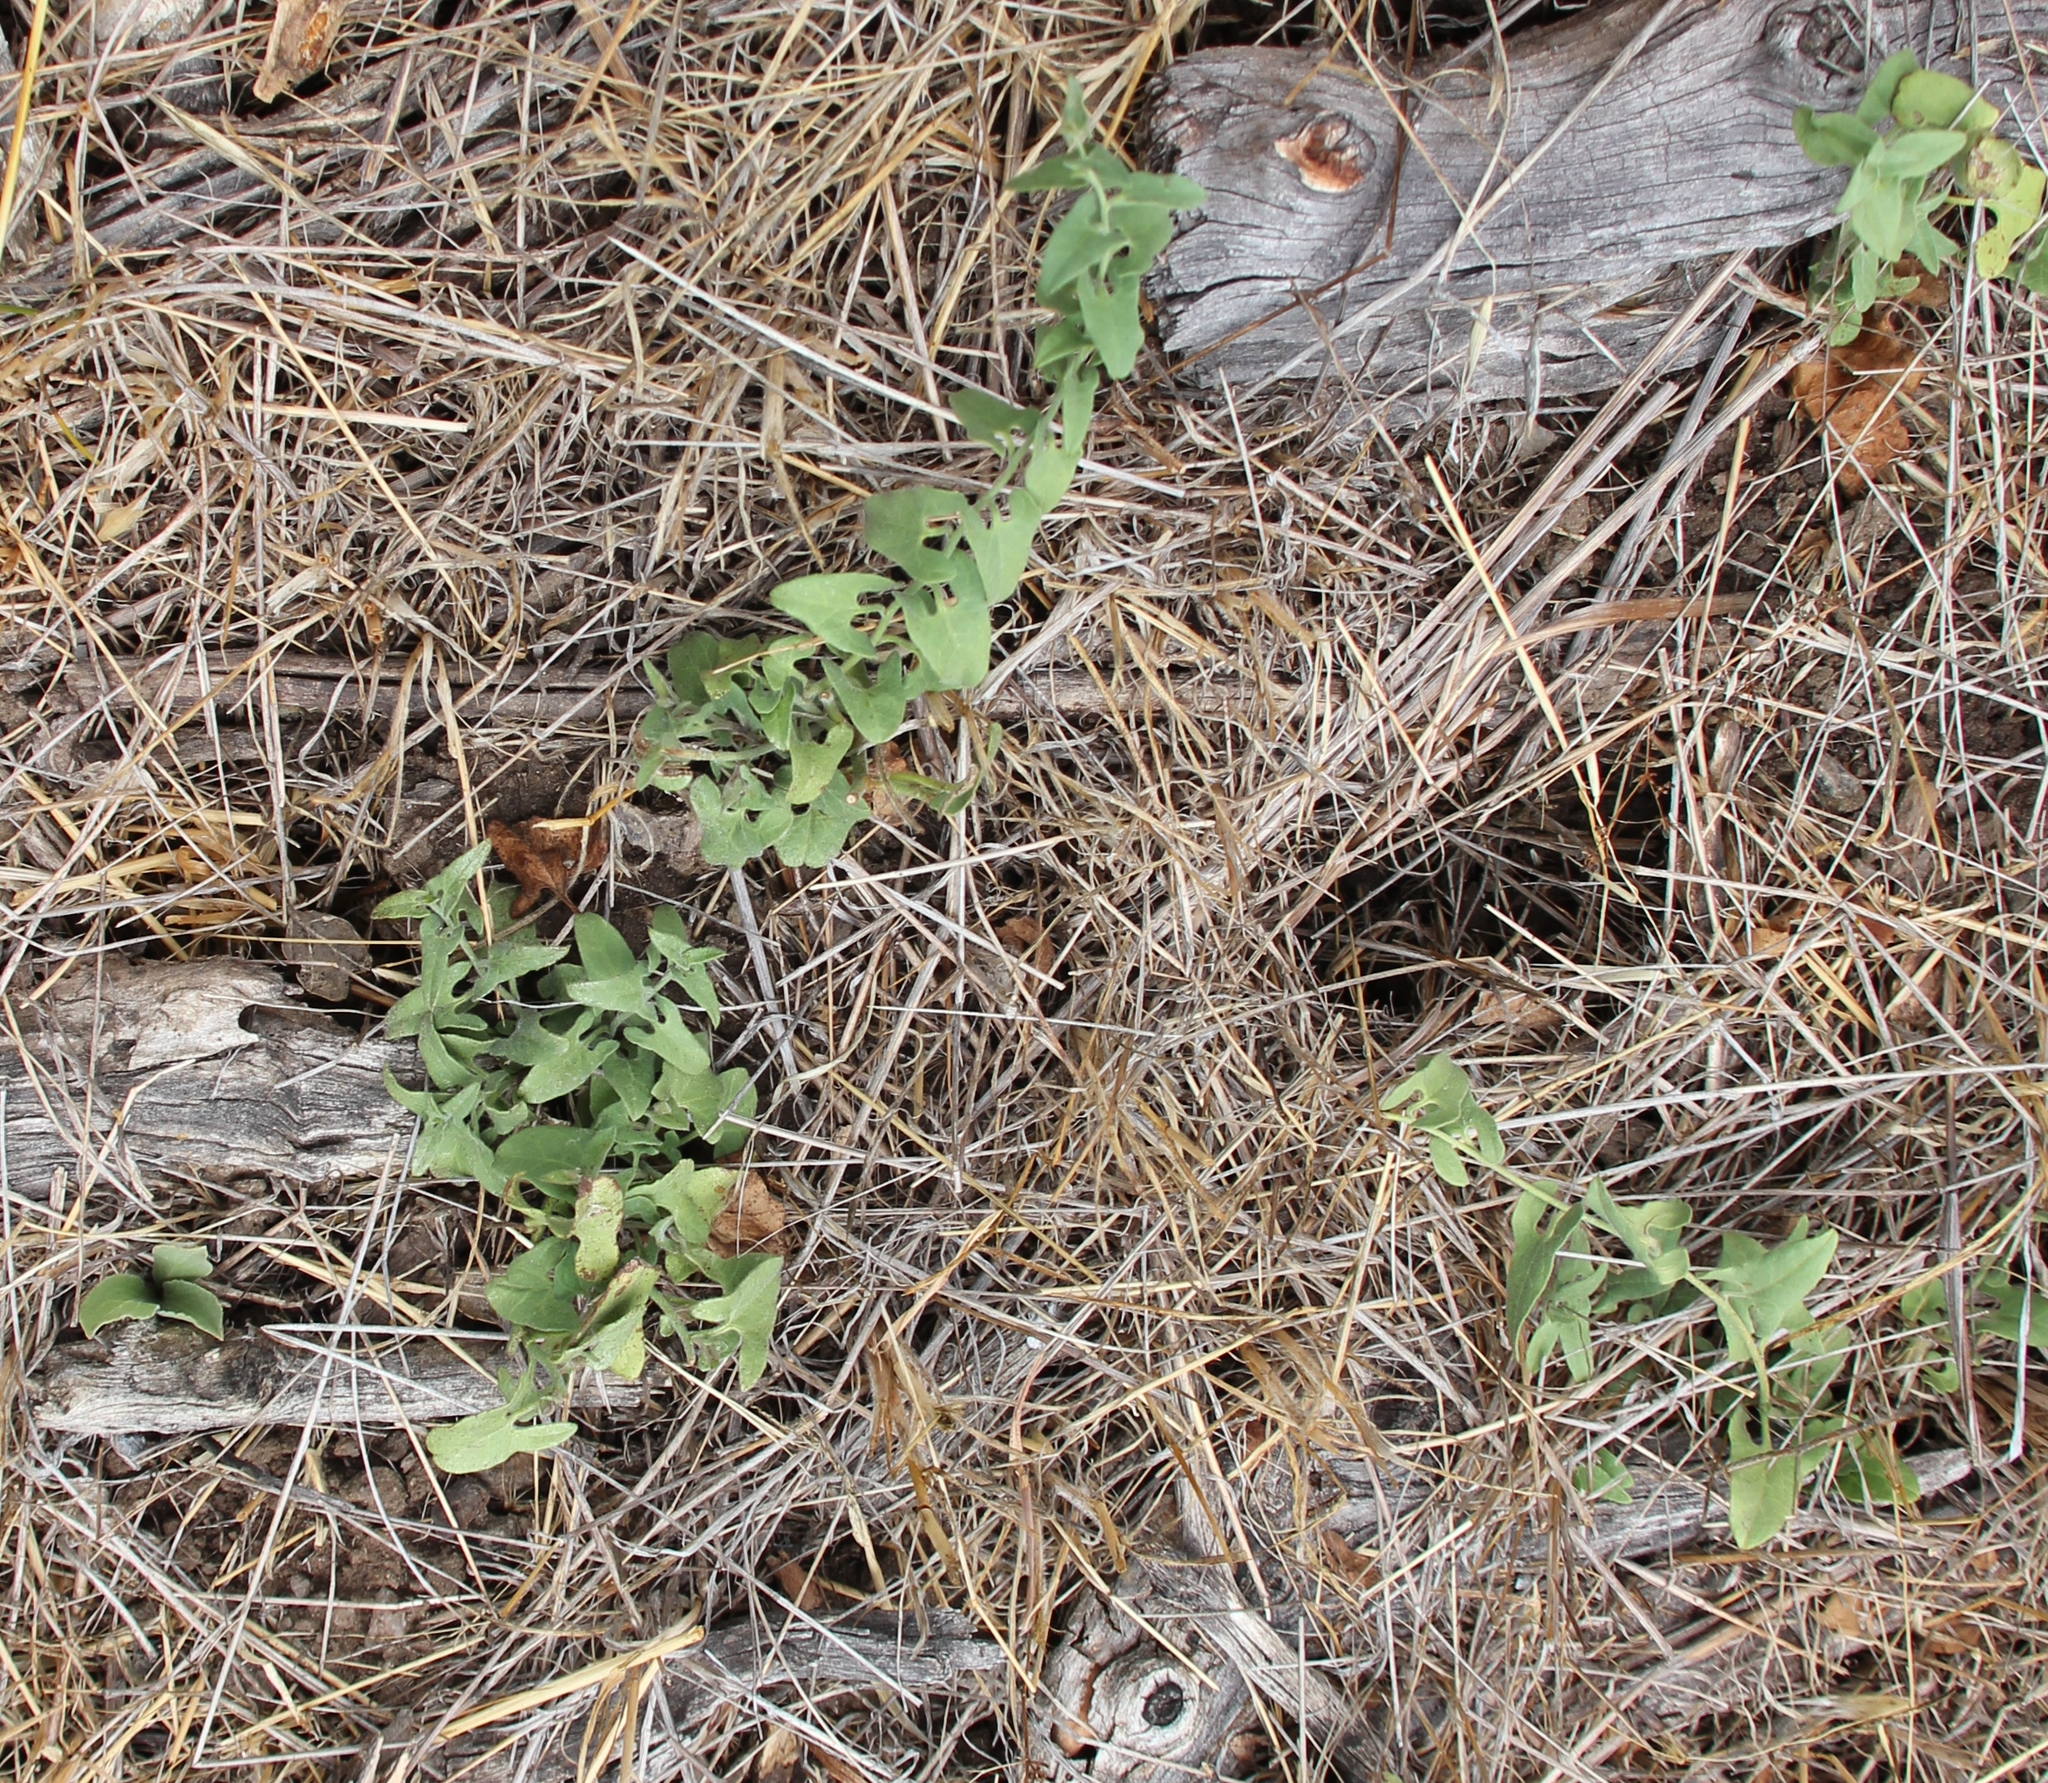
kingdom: Plantae
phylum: Tracheophyta
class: Magnoliopsida
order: Solanales
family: Convolvulaceae
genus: Calystegia
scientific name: Calystegia occidentalis
